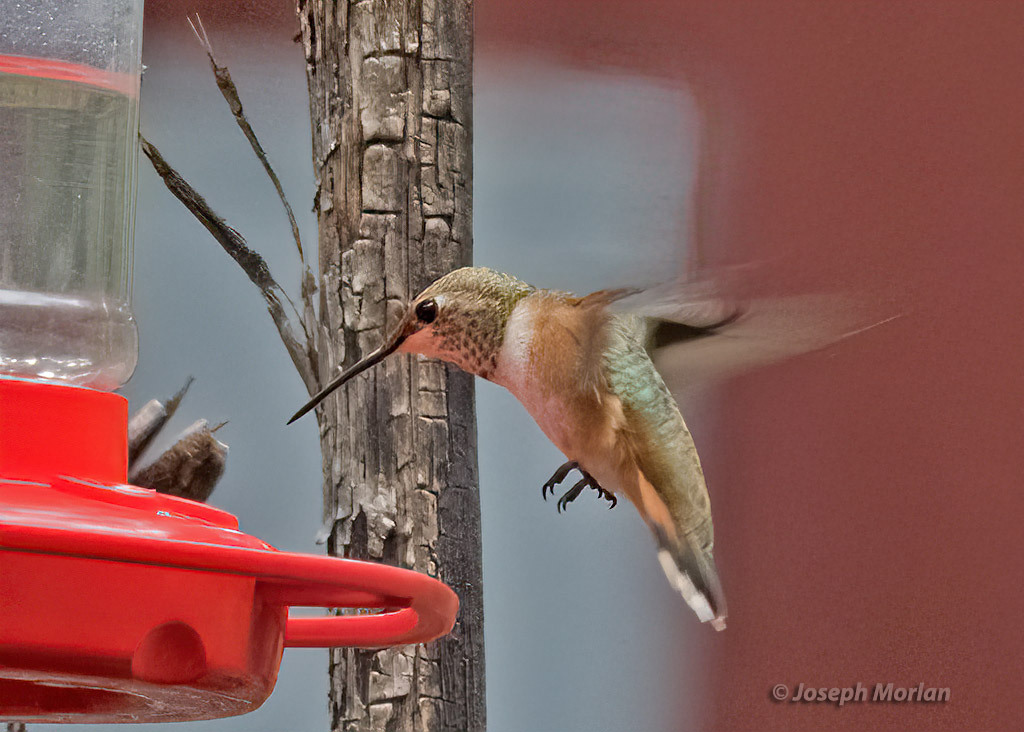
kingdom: Animalia
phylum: Chordata
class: Aves
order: Apodiformes
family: Trochilidae
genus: Selasphorus
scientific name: Selasphorus rufus
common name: Rufous hummingbird
